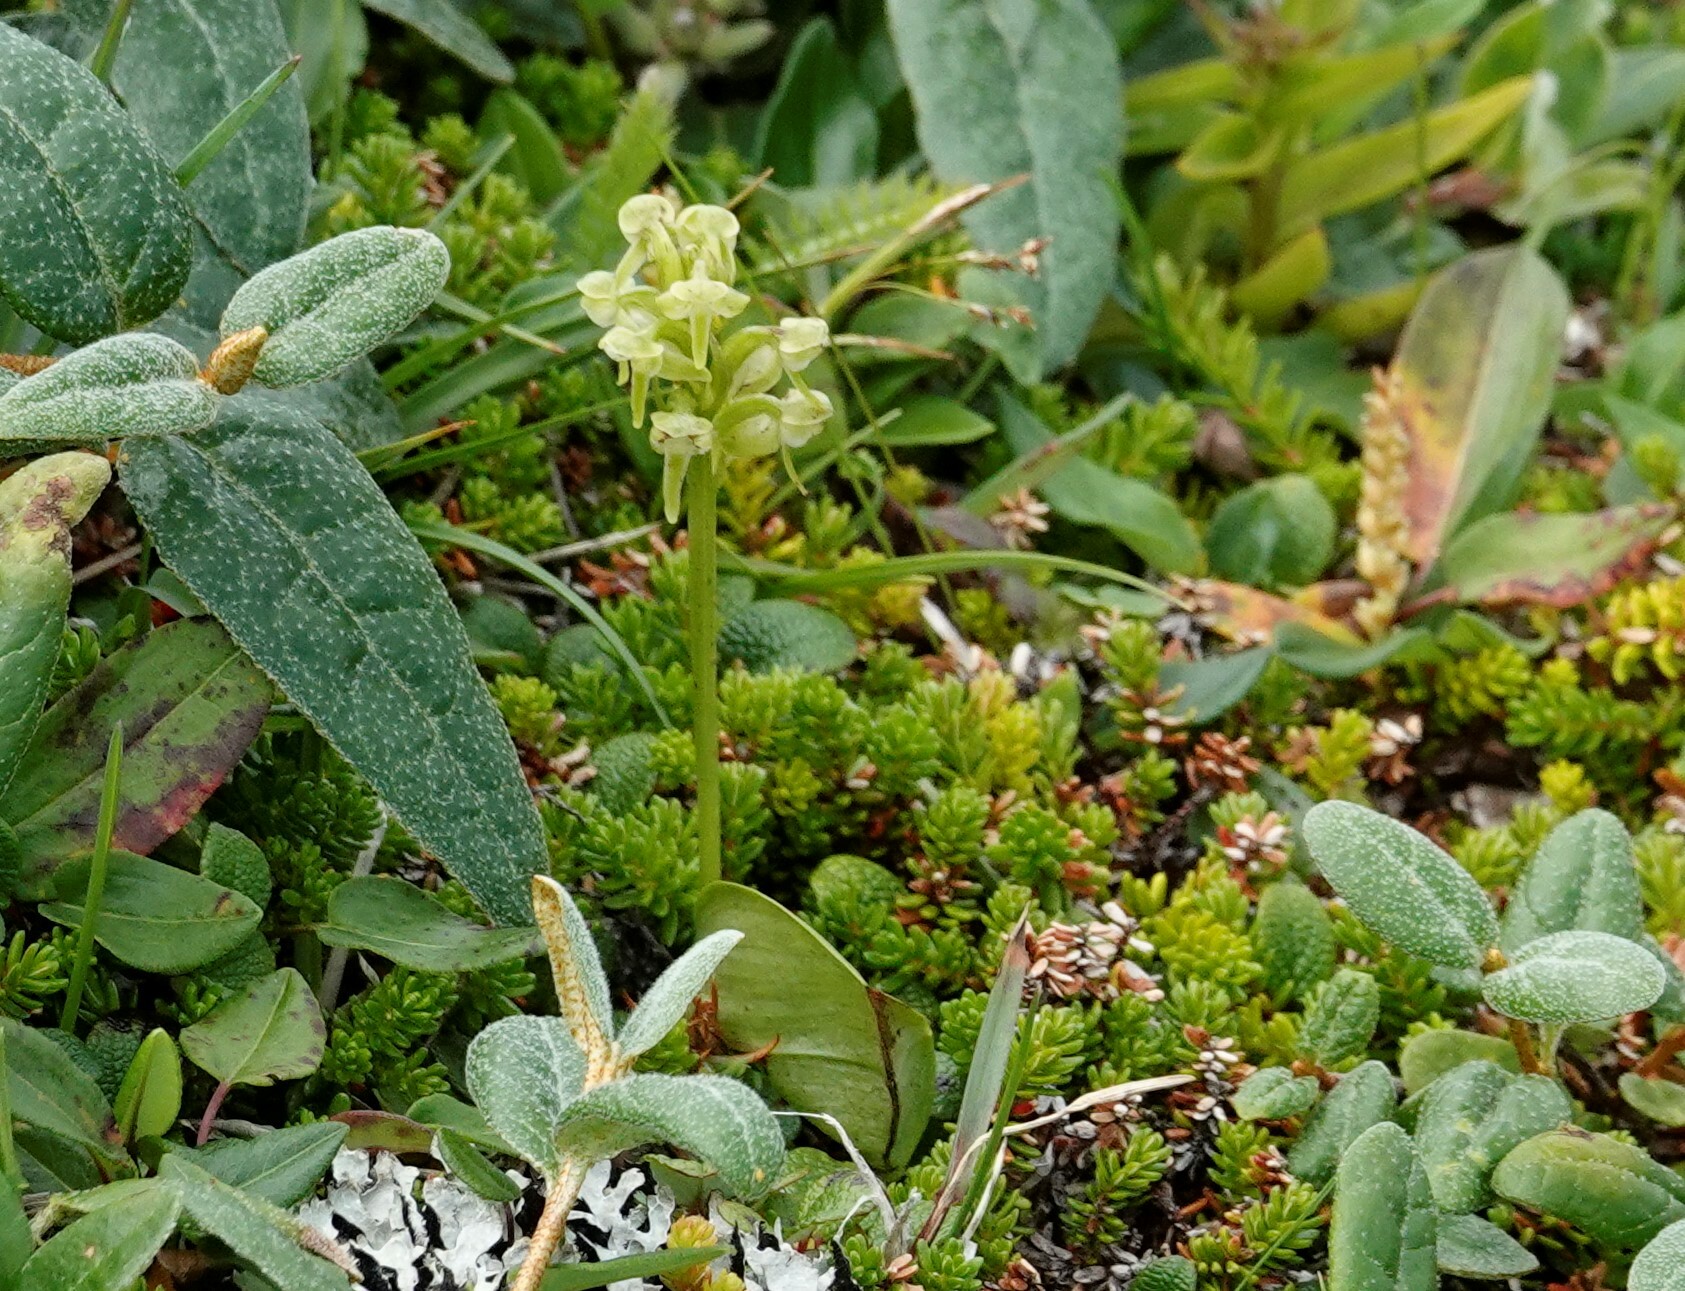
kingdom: Plantae
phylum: Tracheophyta
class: Liliopsida
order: Asparagales
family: Orchidaceae
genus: Platanthera
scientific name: Platanthera obtusata
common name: Blunt bog orchid
